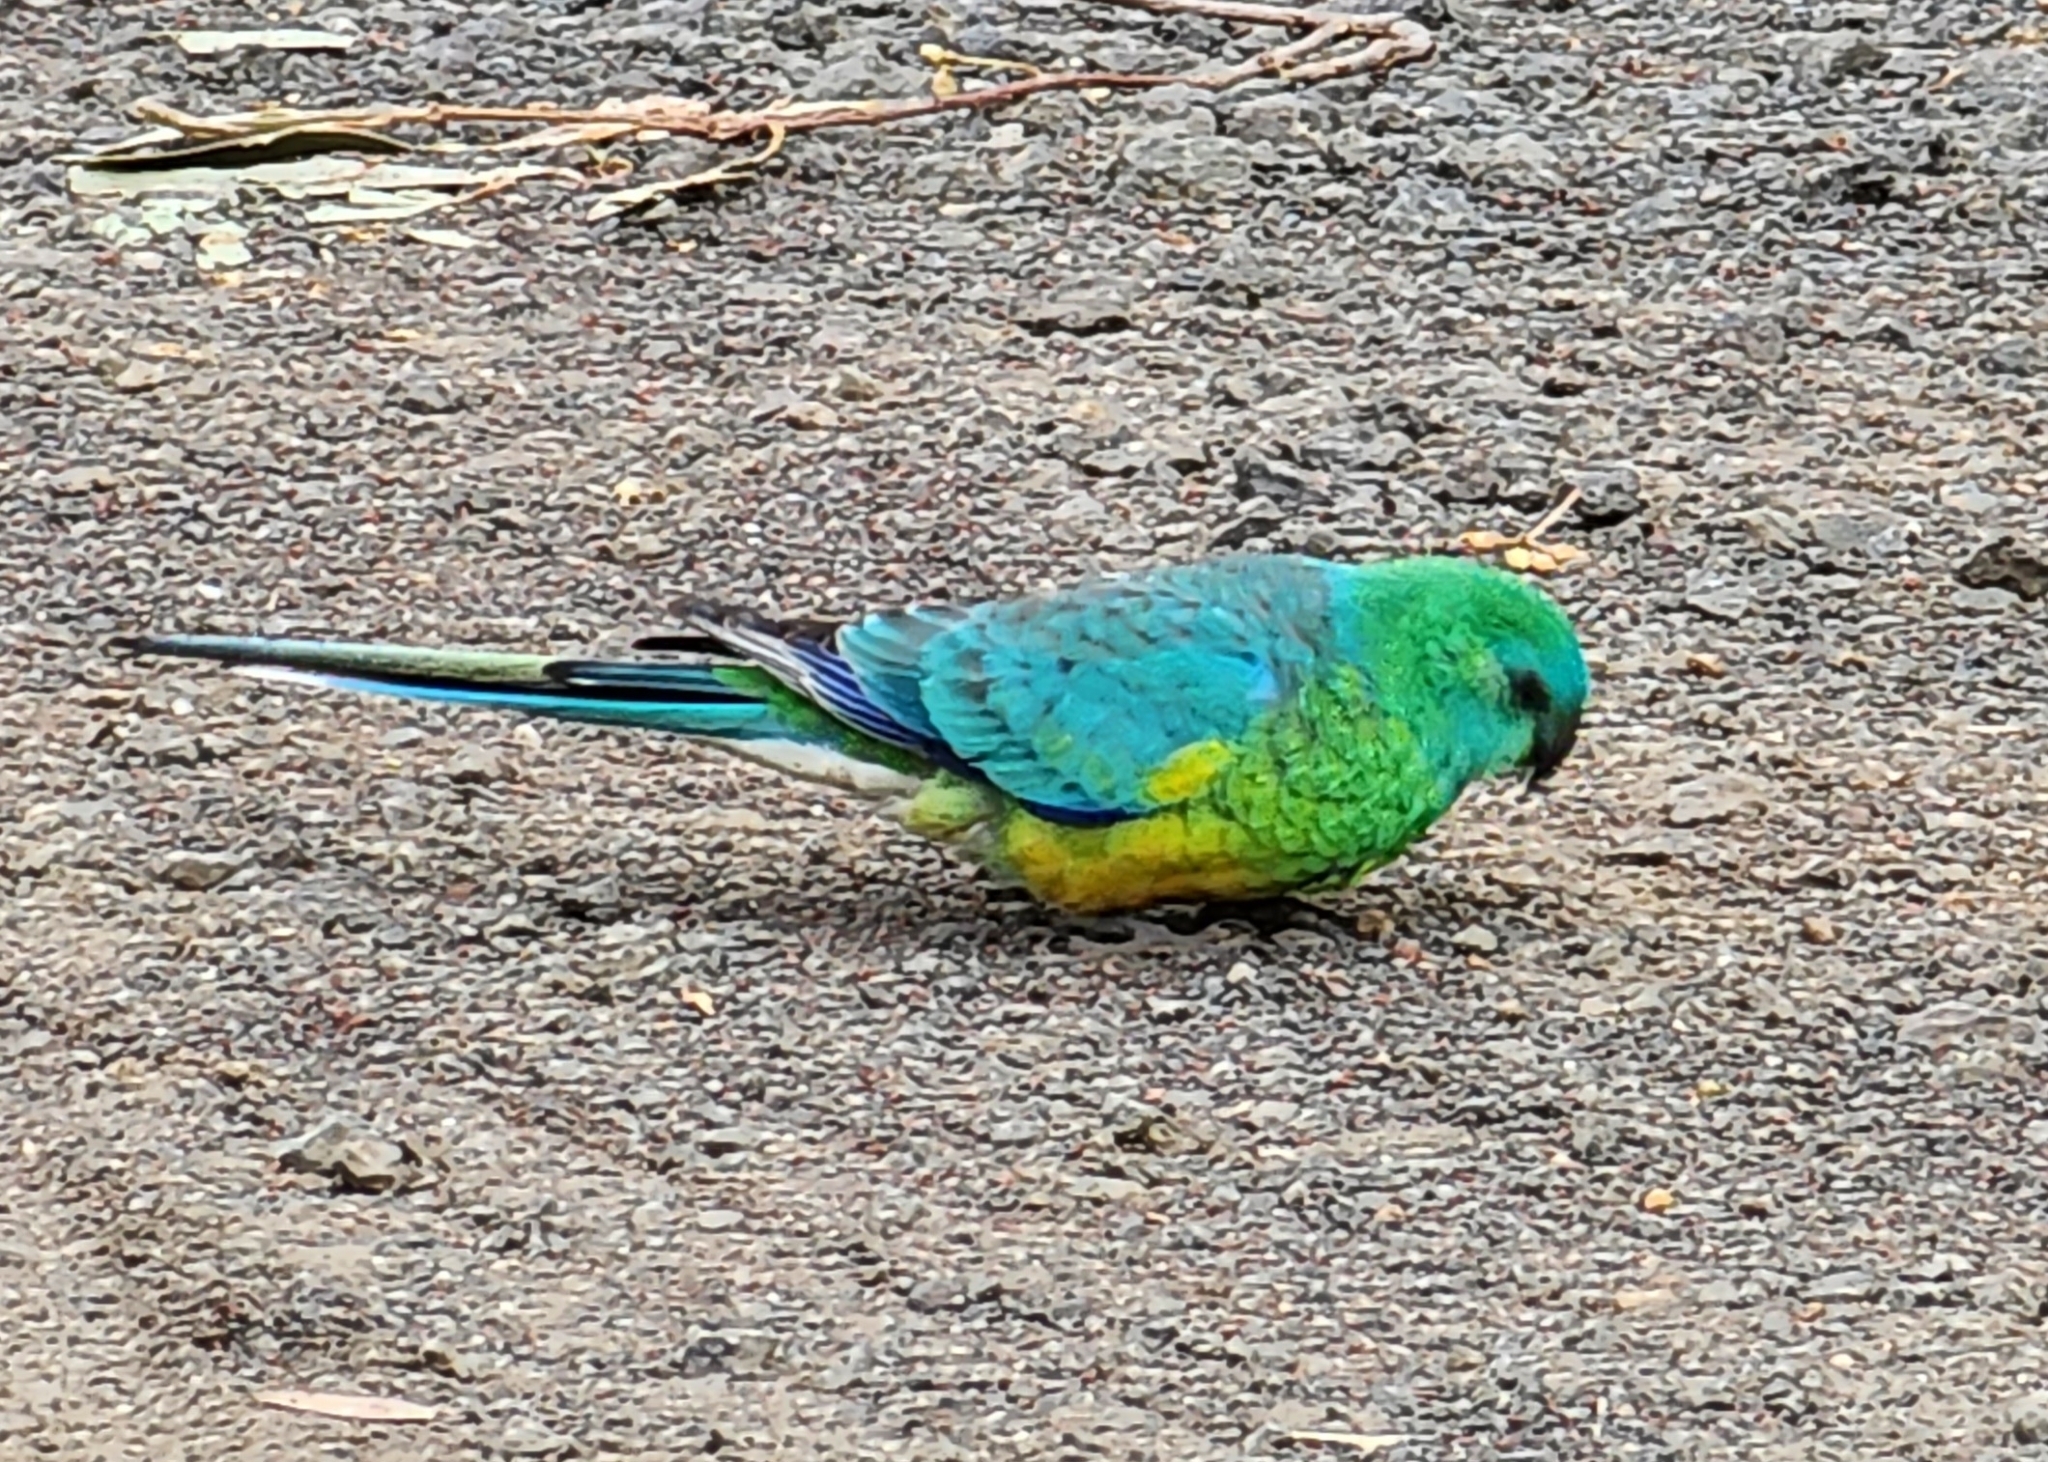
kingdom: Animalia
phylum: Chordata
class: Aves
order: Psittaciformes
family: Psittacidae
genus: Psephotus
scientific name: Psephotus haematonotus
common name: Red-rumped parrot
